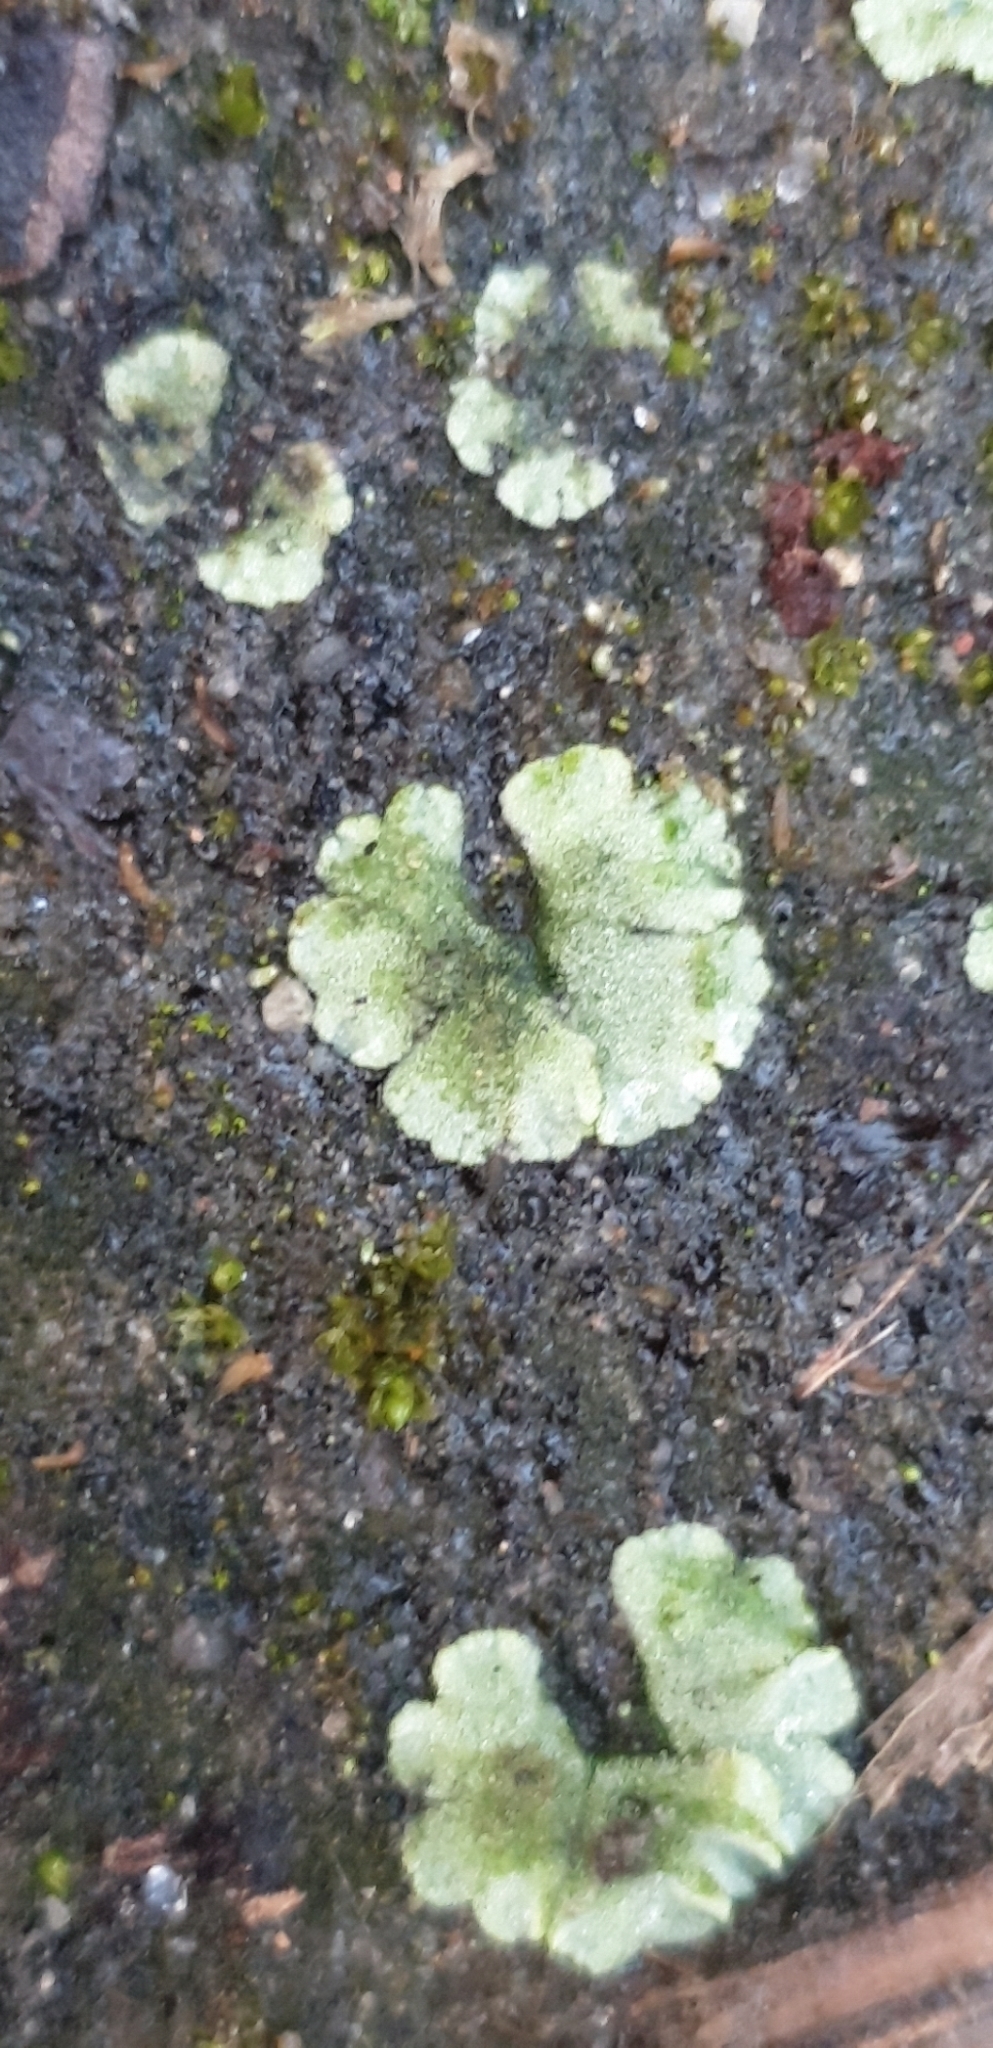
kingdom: Plantae
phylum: Marchantiophyta
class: Marchantiopsida
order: Marchantiales
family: Ricciaceae
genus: Riccia
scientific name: Riccia crystallina
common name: Blue crystalwort
